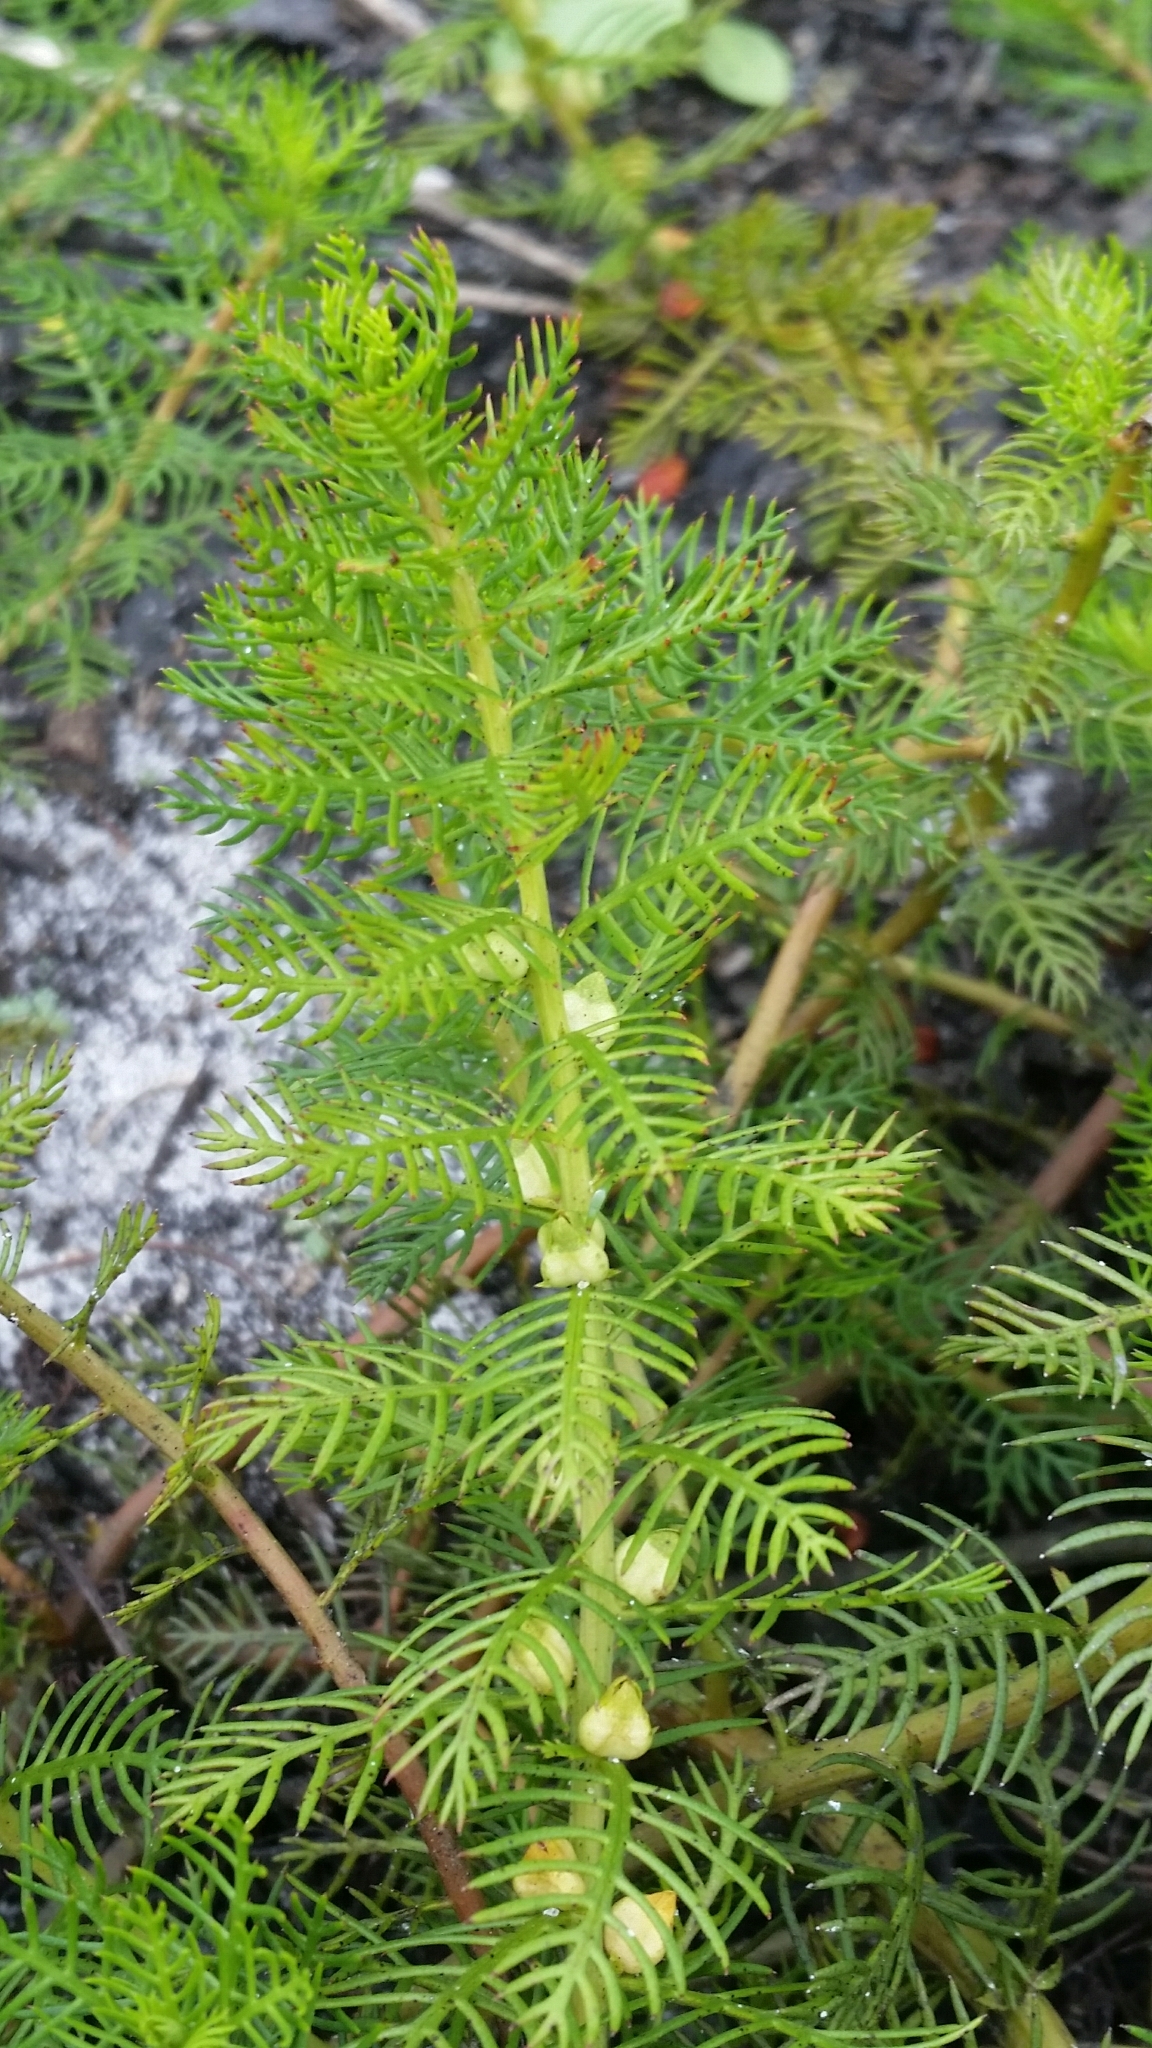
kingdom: Plantae
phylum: Tracheophyta
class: Magnoliopsida
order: Saxifragales
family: Haloragaceae
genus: Proserpinaca
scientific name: Proserpinaca pectinata
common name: Comb-leaved mermaidweed
